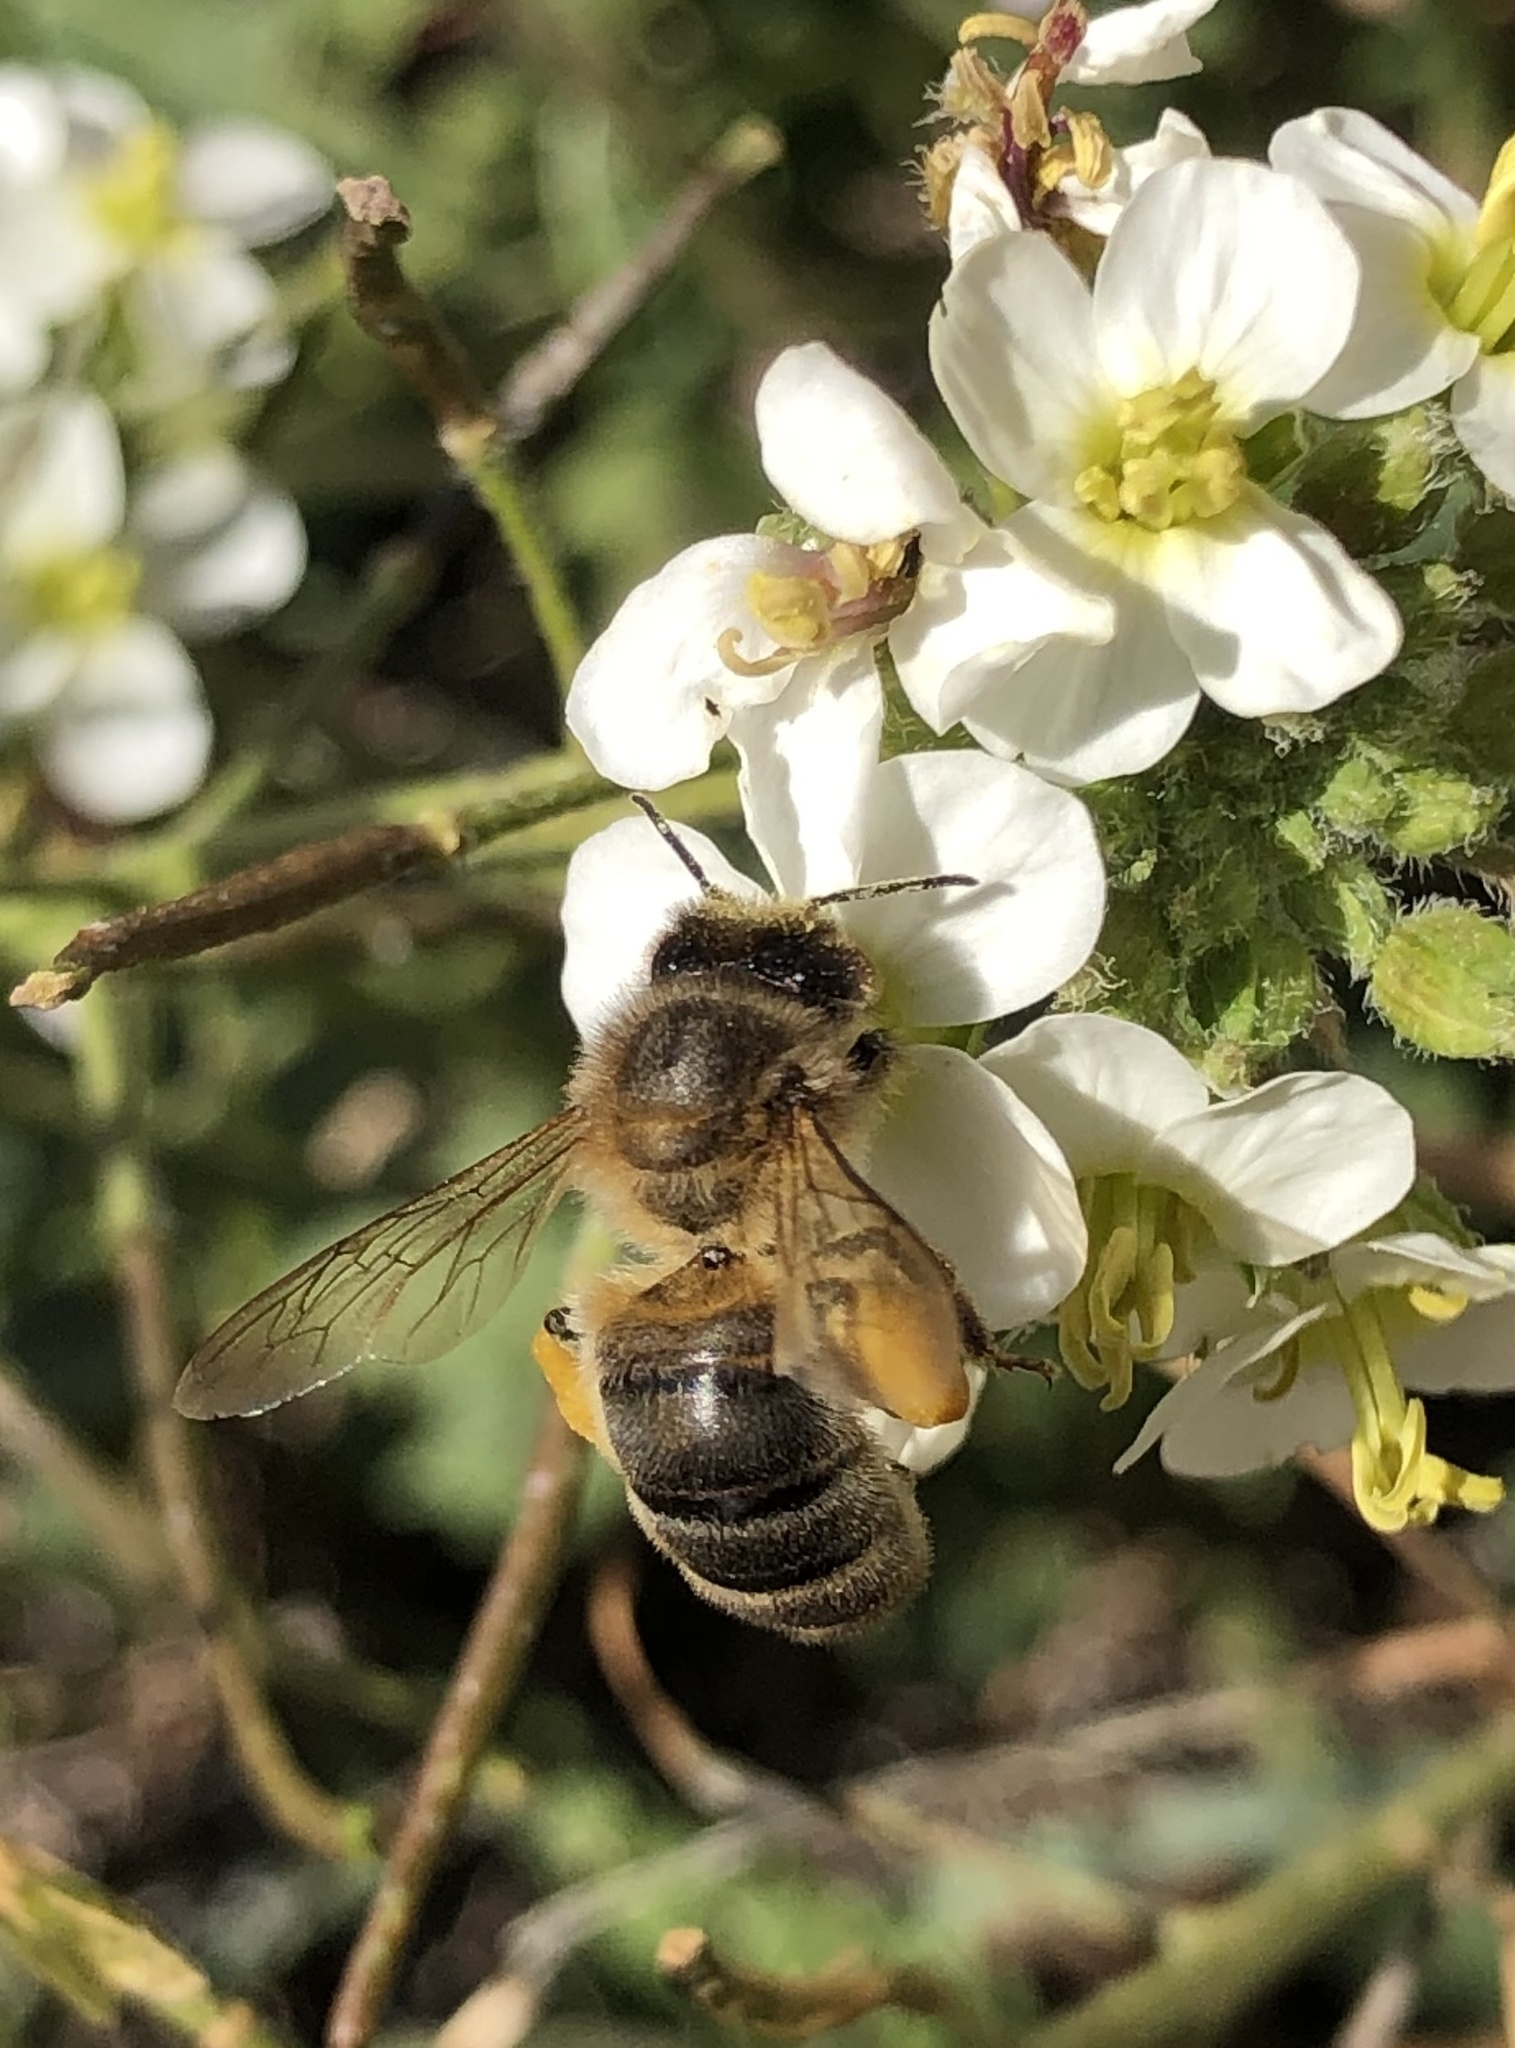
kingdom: Animalia
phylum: Arthropoda
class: Insecta
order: Hymenoptera
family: Apidae
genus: Apis
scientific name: Apis mellifera
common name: Honey bee
